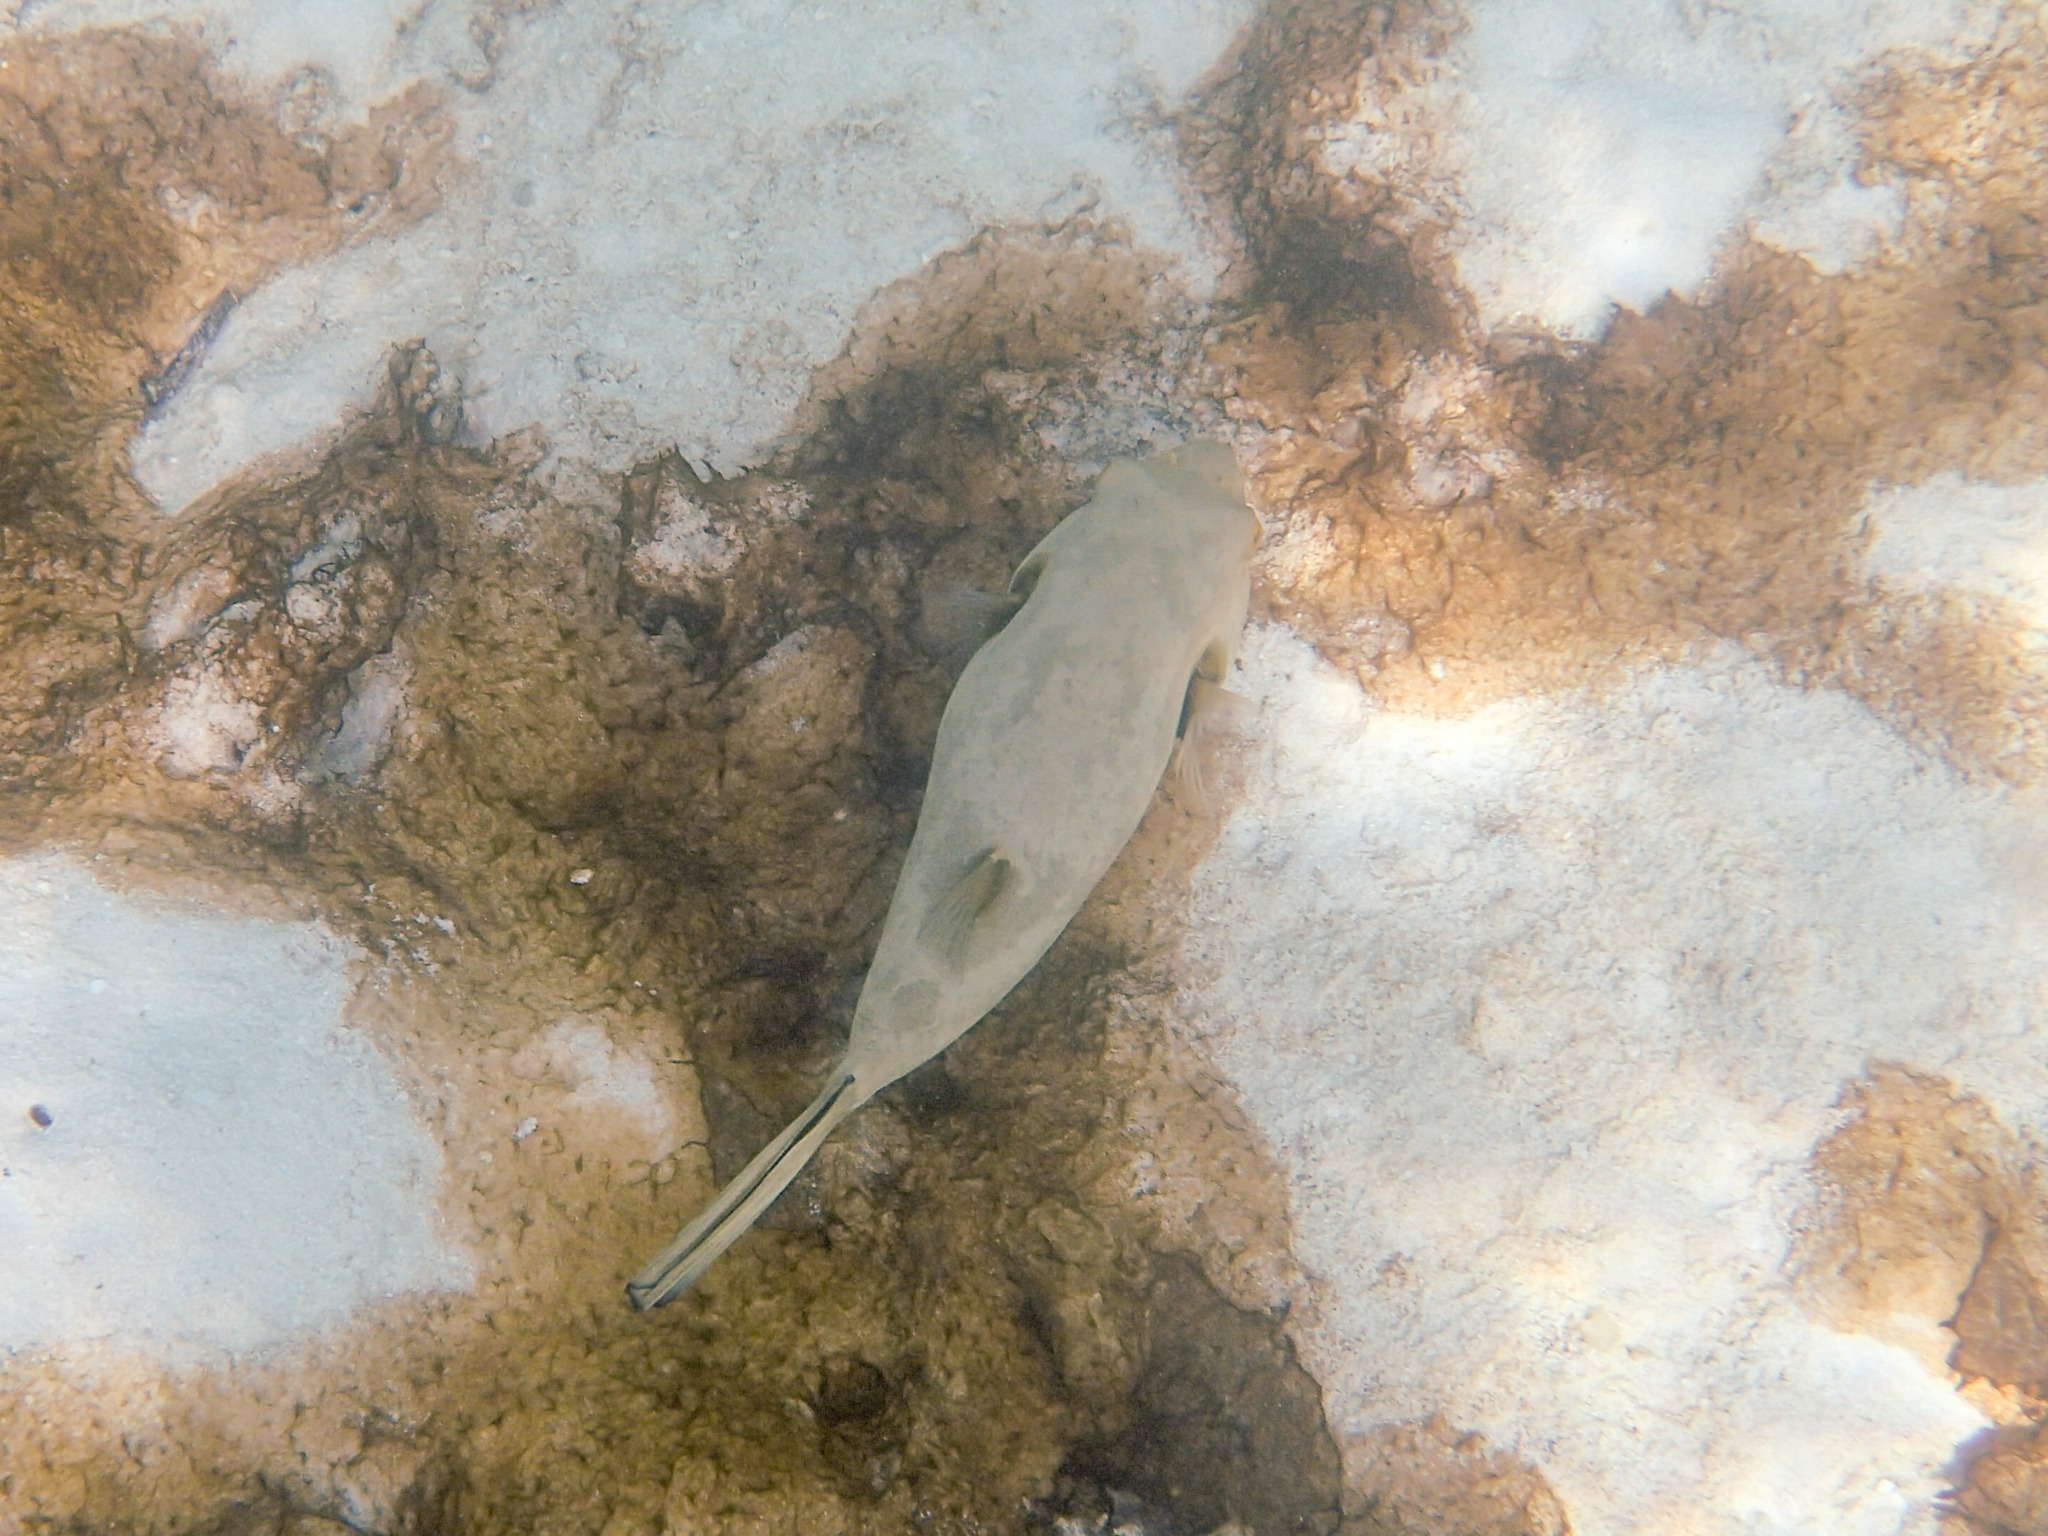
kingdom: Animalia
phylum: Chordata
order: Tetraodontiformes
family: Tetraodontidae
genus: Arothron
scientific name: Arothron immaculatus
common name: Blackedged blaasop
